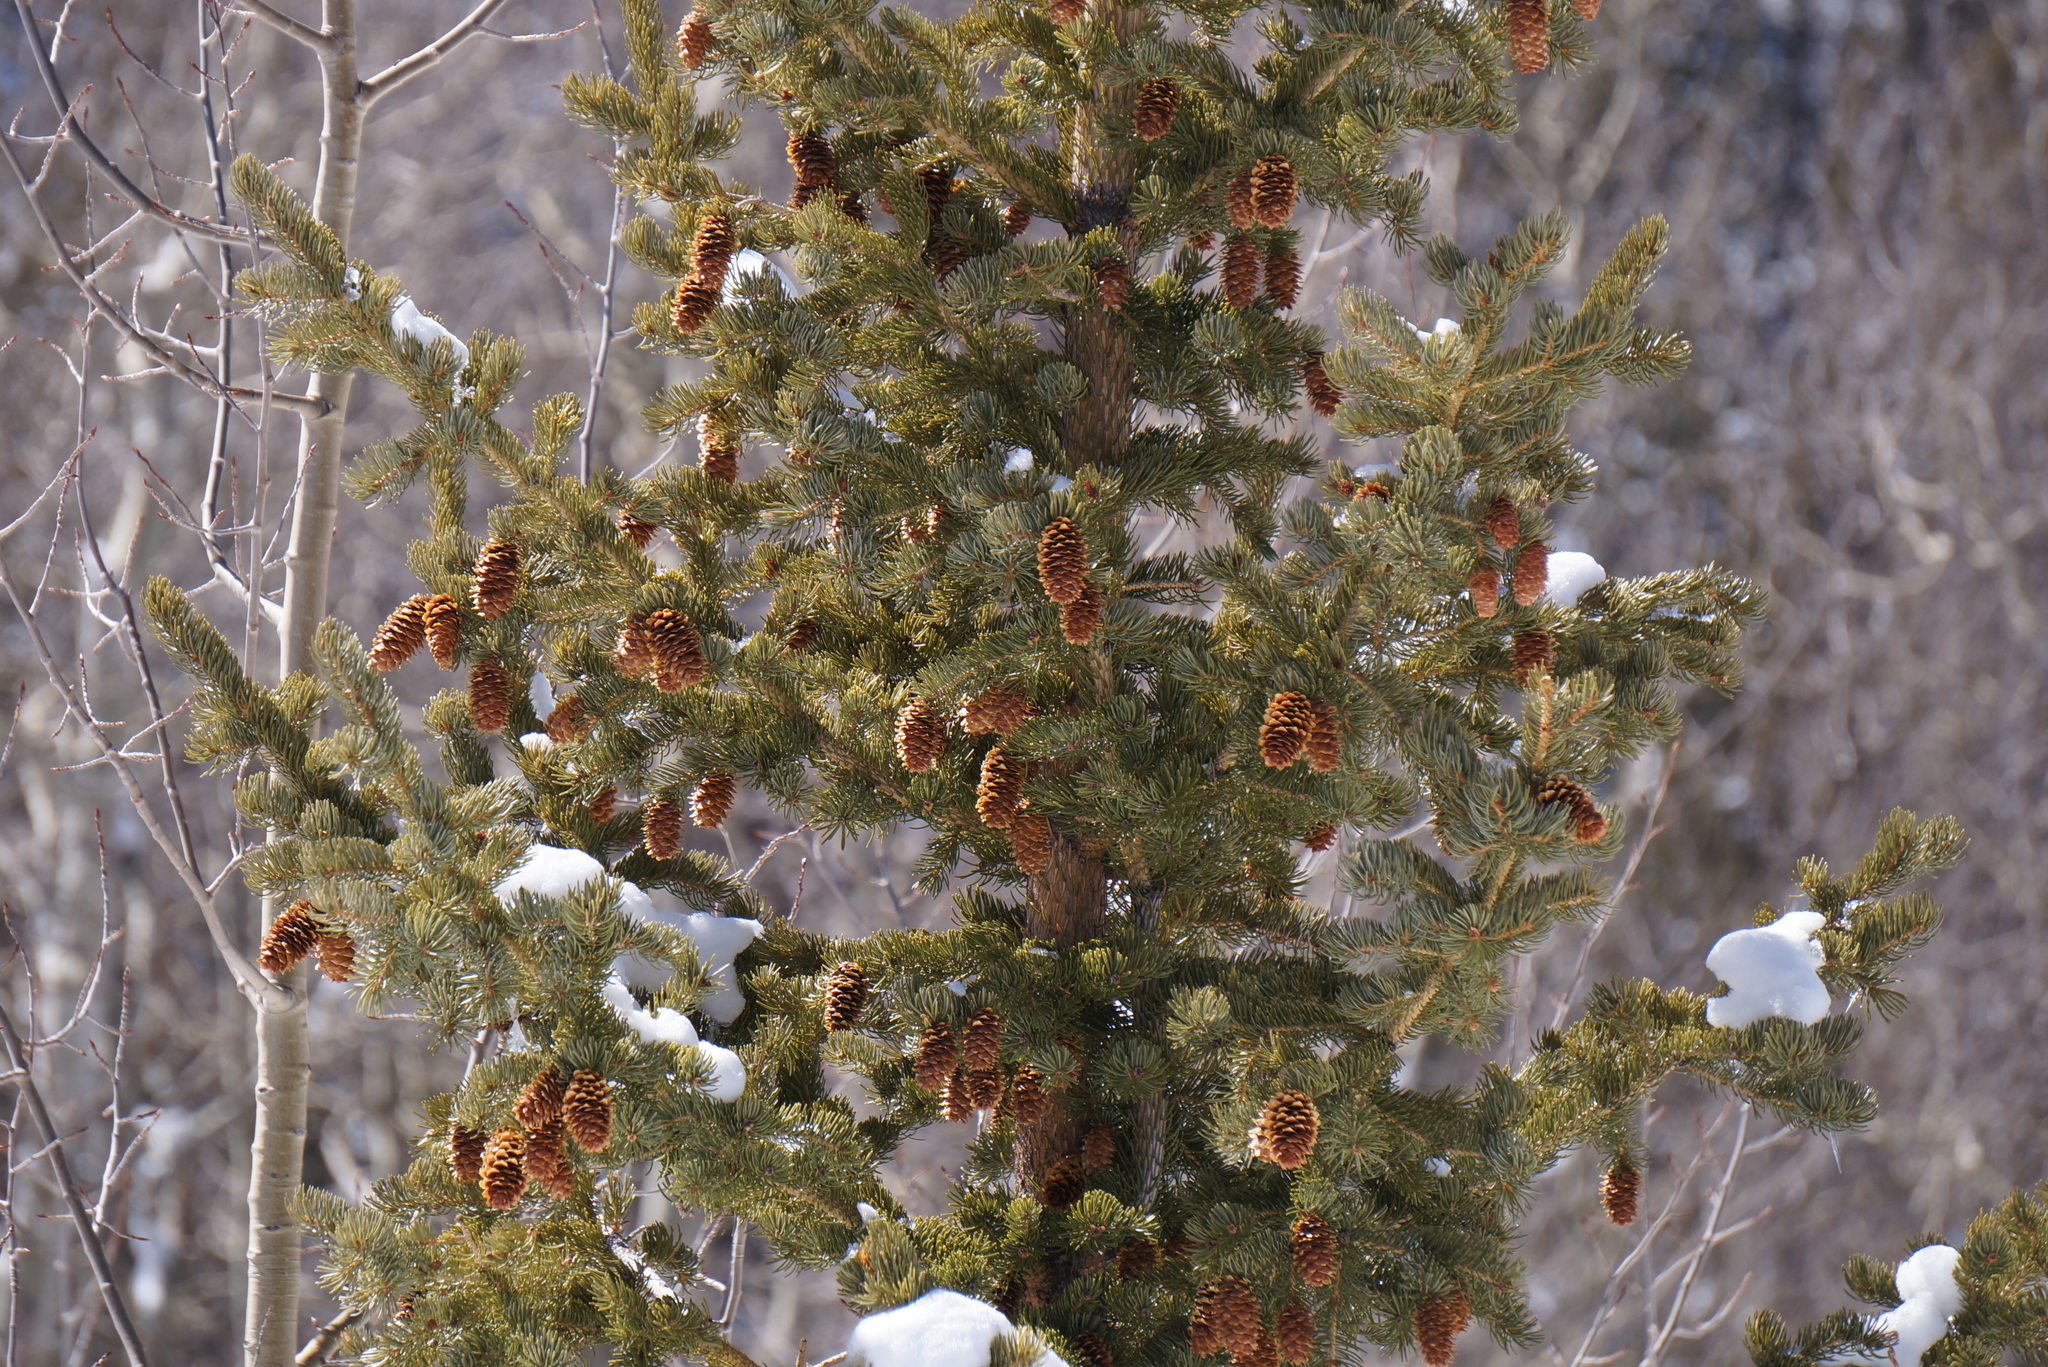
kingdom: Plantae
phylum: Tracheophyta
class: Pinopsida
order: Pinales
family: Pinaceae
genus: Picea
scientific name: Picea engelmannii
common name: Engelmann spruce
